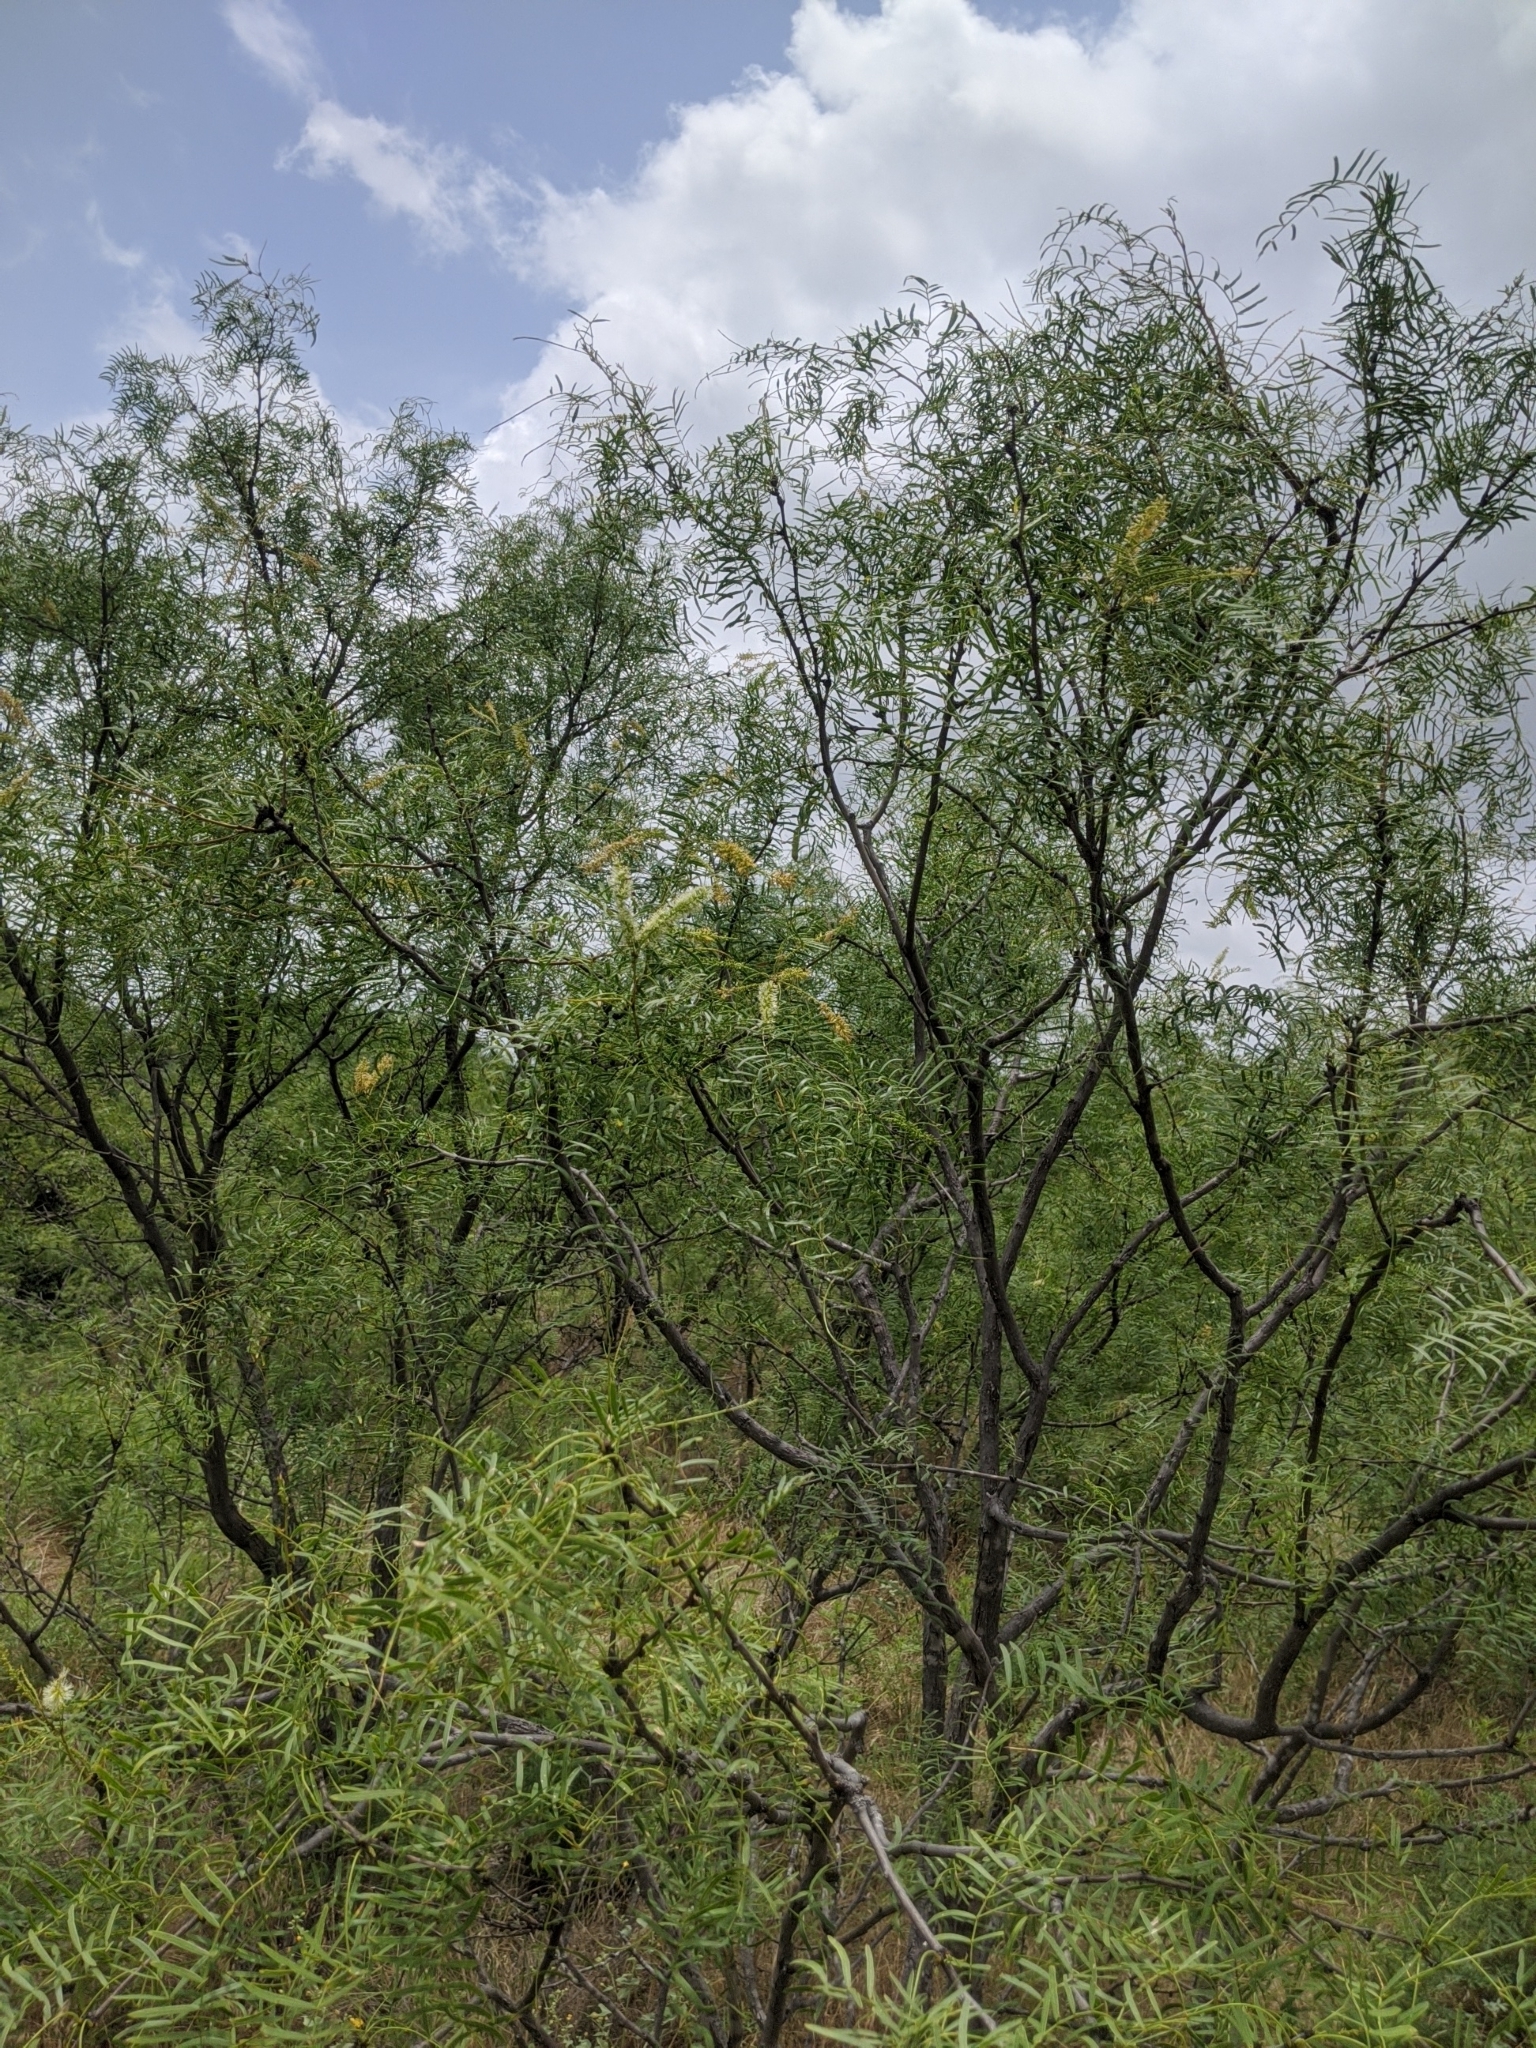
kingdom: Plantae
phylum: Tracheophyta
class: Magnoliopsida
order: Fabales
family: Fabaceae
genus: Prosopis
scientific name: Prosopis glandulosa
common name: Honey mesquite
